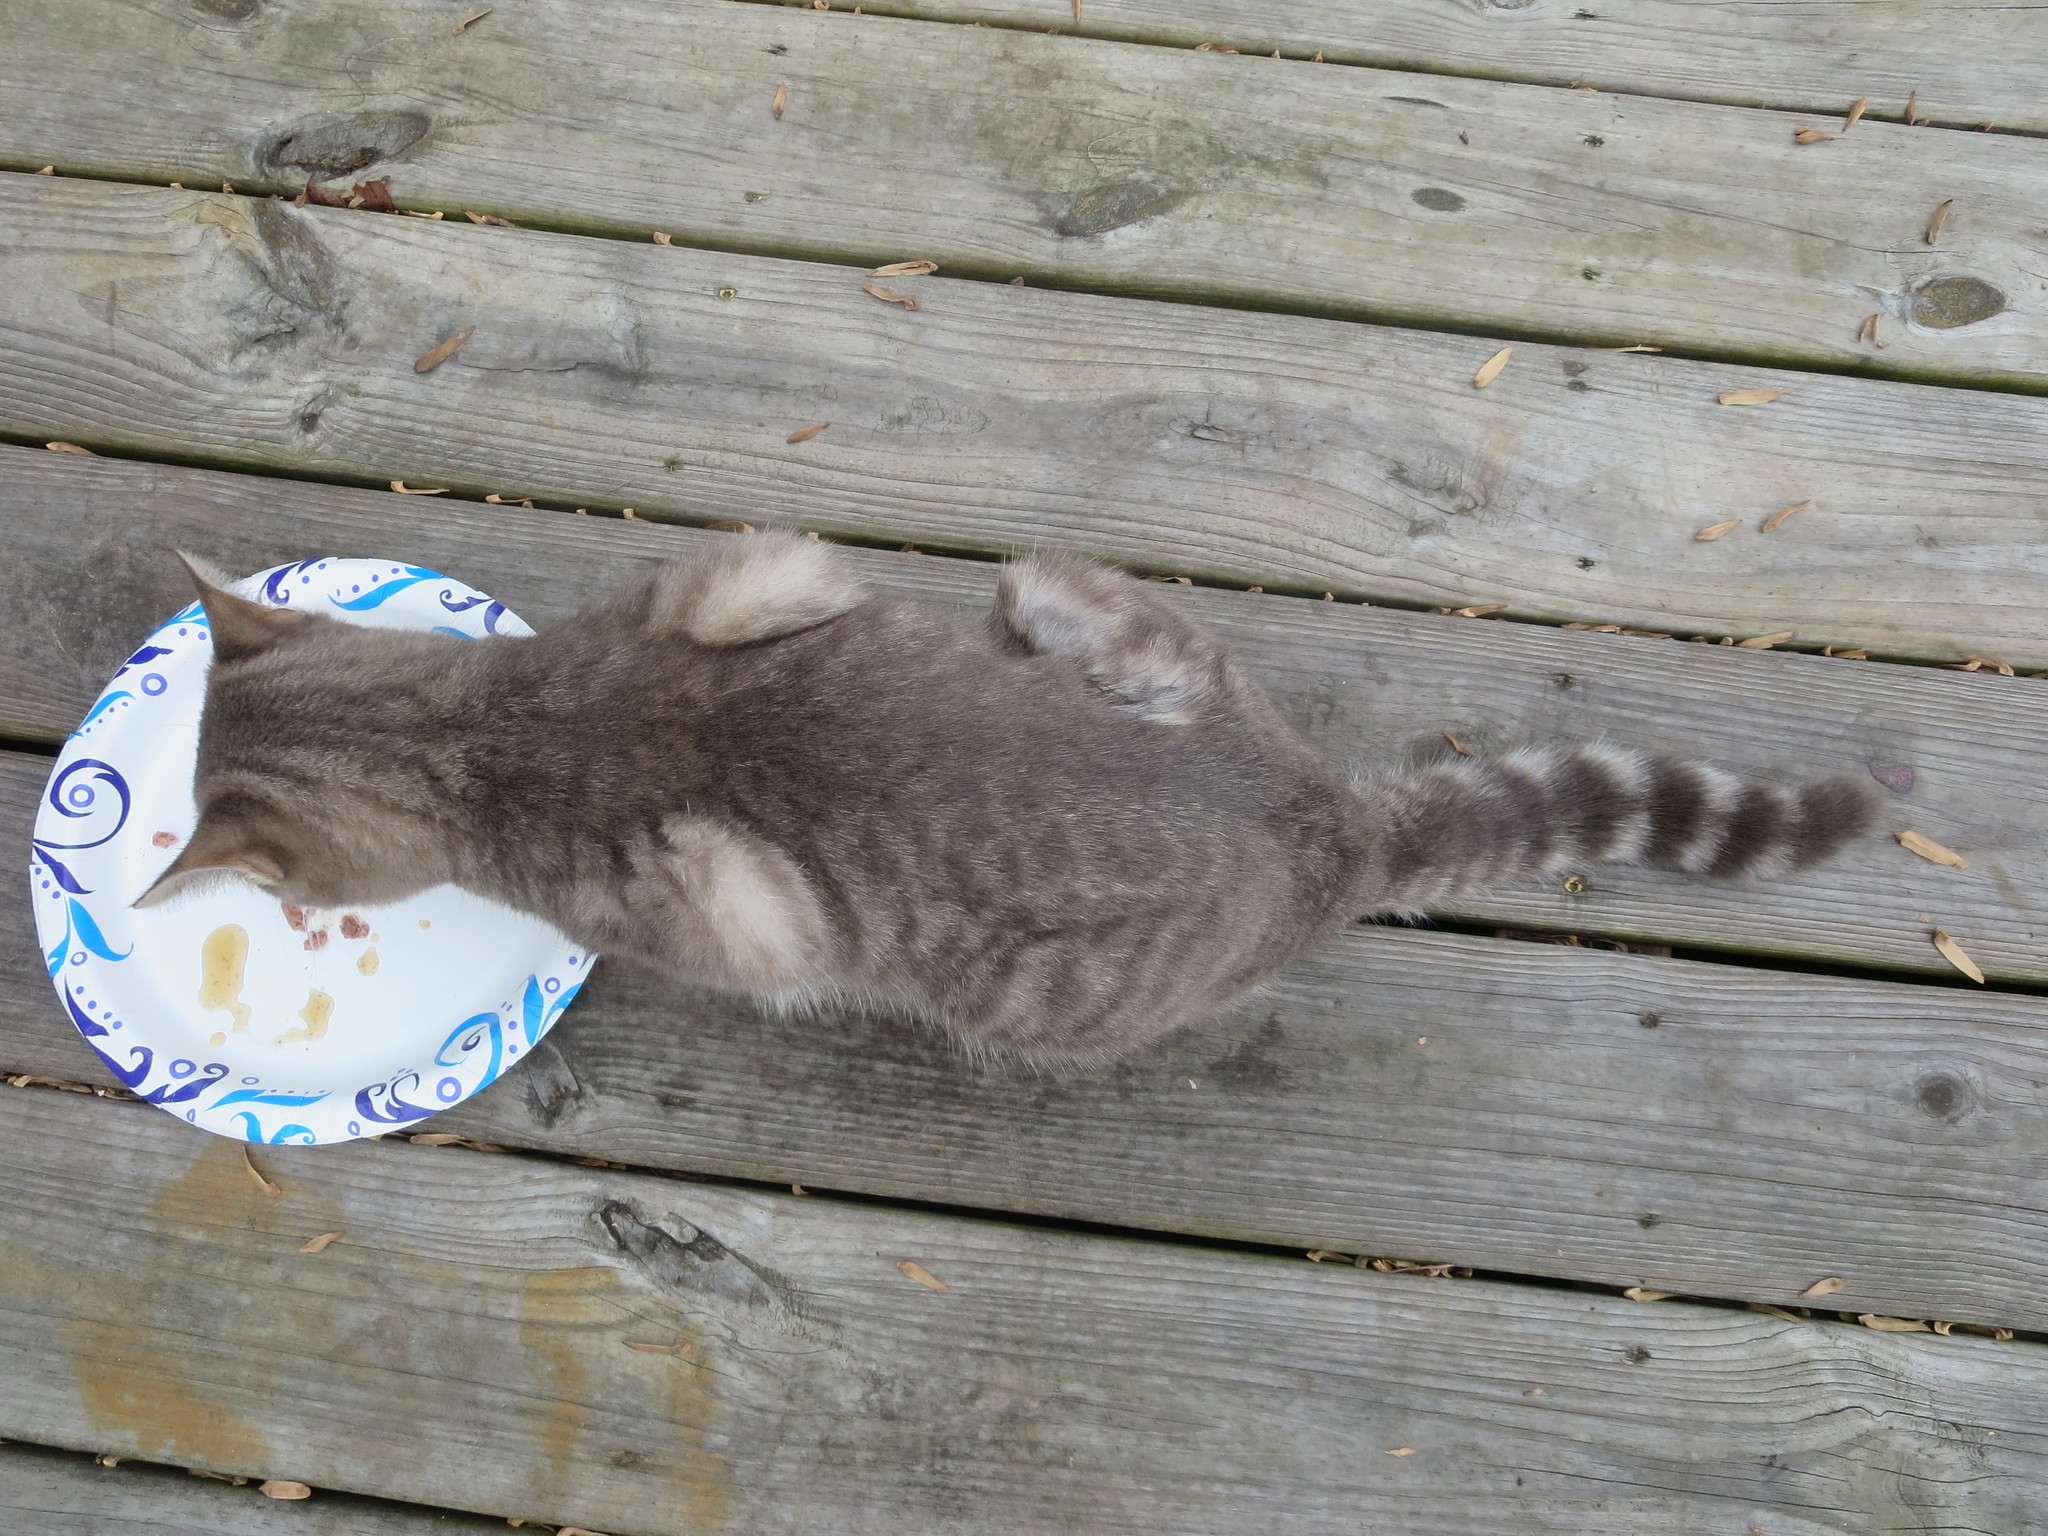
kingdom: Animalia
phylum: Chordata
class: Mammalia
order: Carnivora
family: Felidae
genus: Felis
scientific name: Felis catus
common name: Domestic cat
